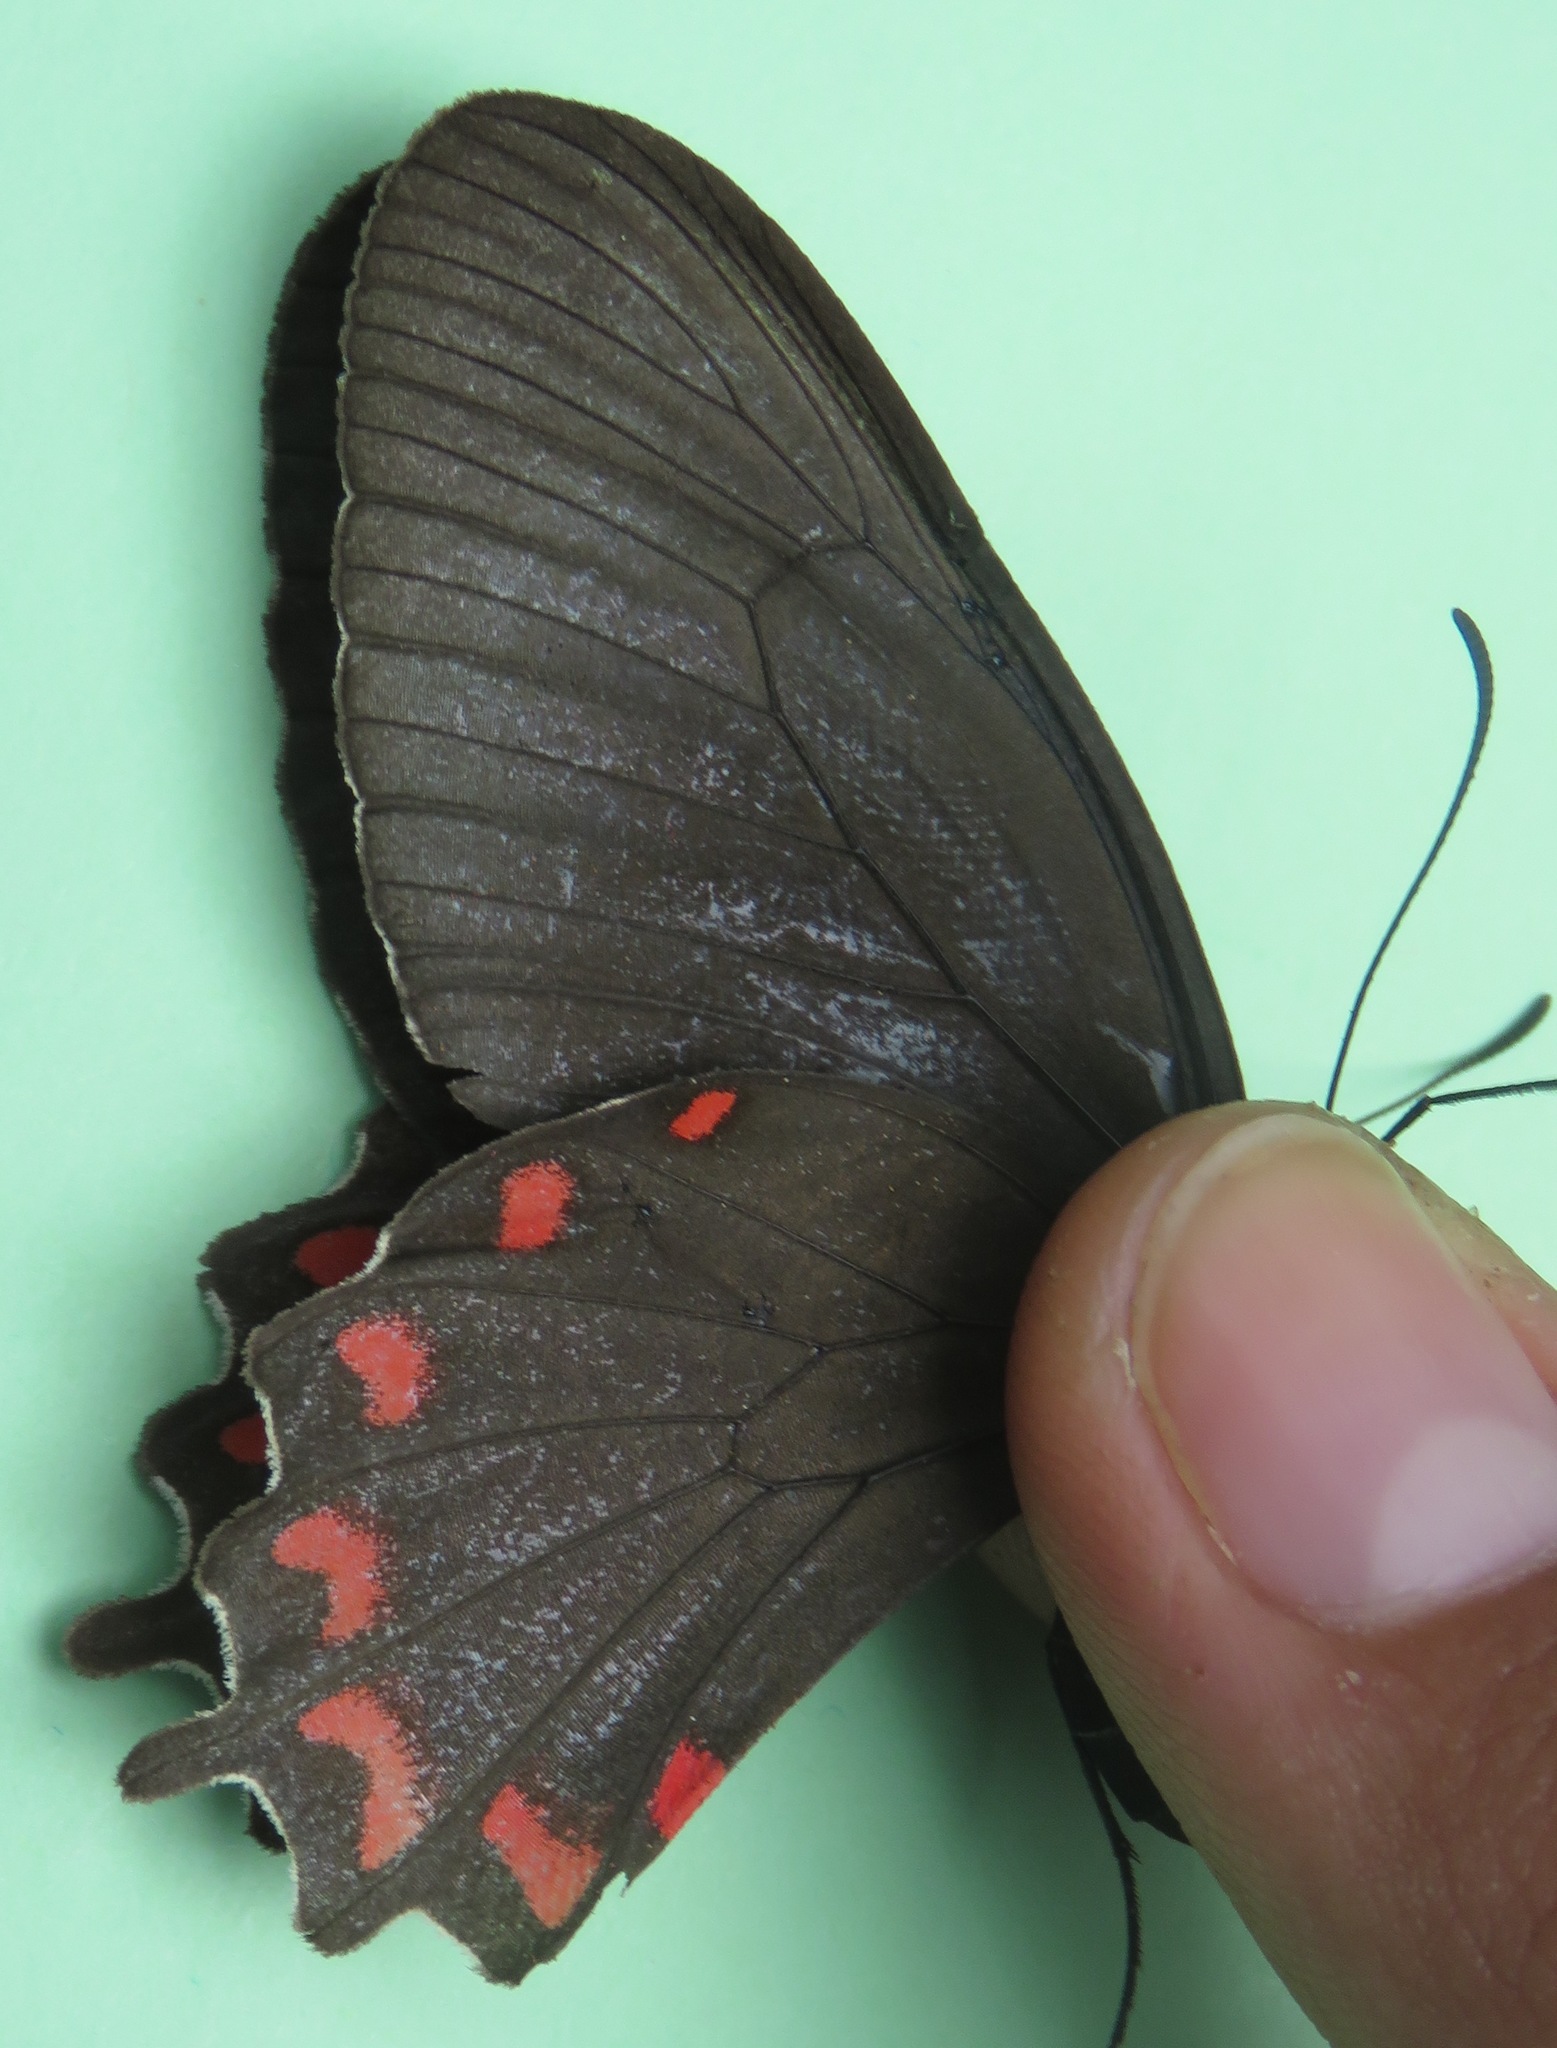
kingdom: Animalia
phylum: Arthropoda
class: Insecta
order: Lepidoptera
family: Papilionidae
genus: Parides
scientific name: Parides montezuma
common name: Montezuma's cattleheart
